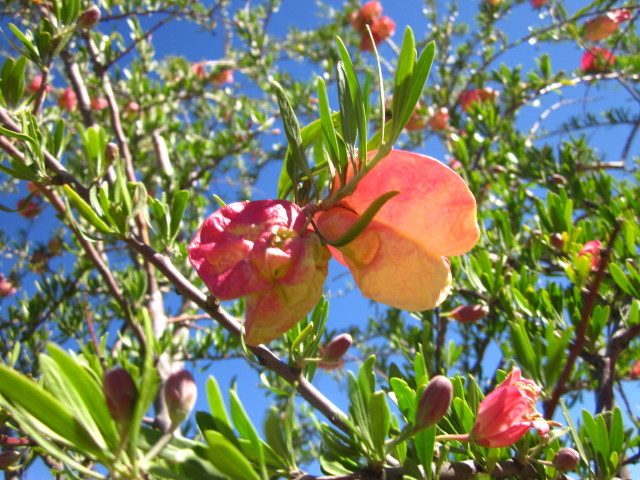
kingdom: Plantae
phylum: Tracheophyta
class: Magnoliopsida
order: Sapindales
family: Meliaceae
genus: Nymania
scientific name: Nymania capensis
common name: Chinese lantern tree
